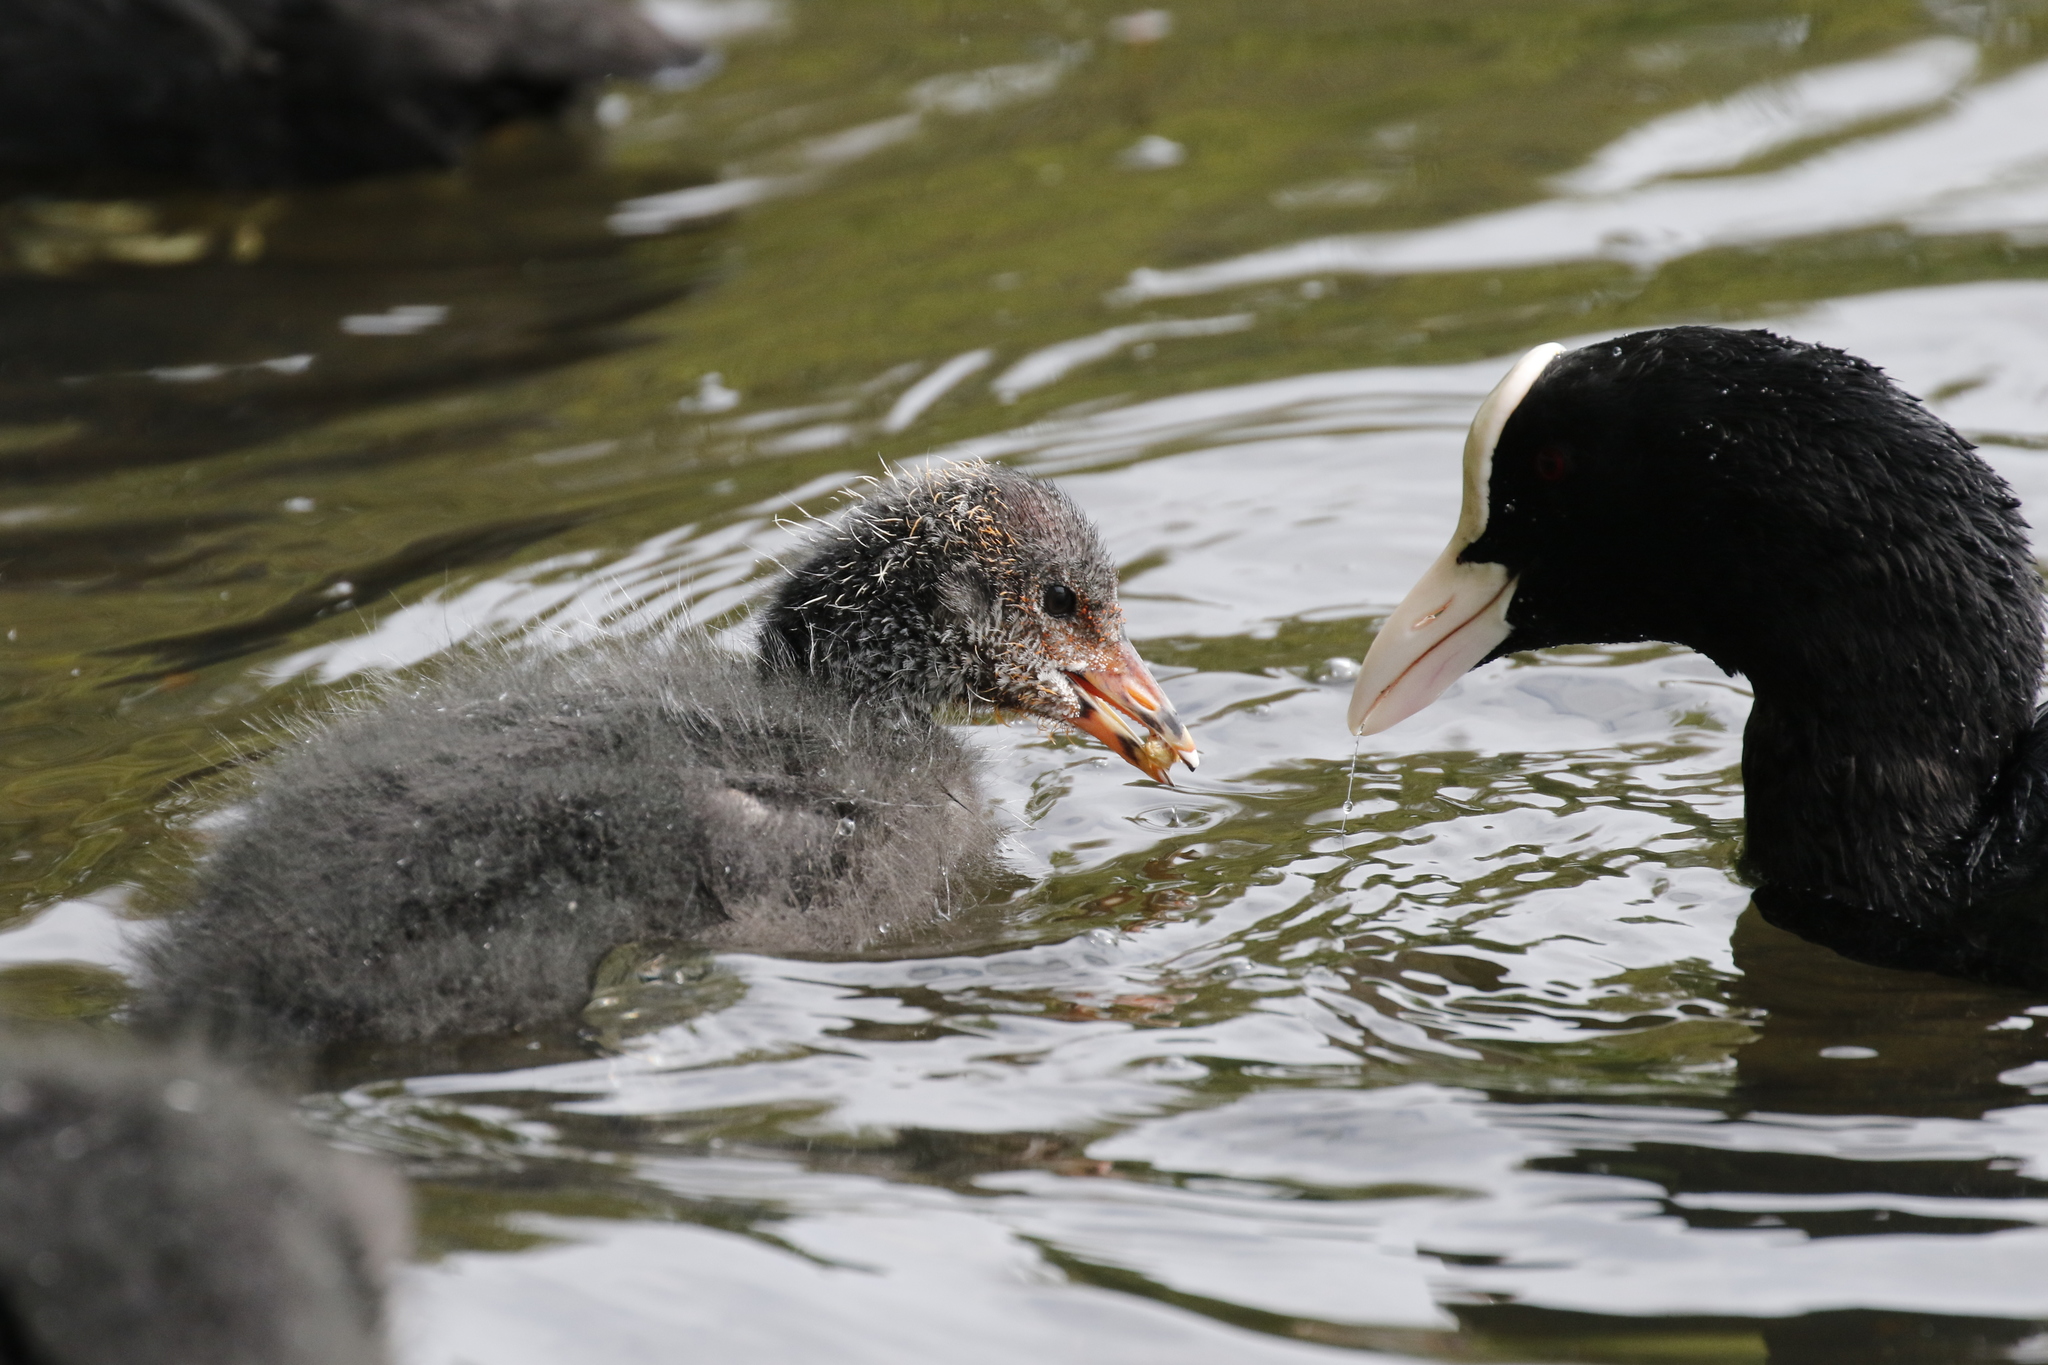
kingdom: Animalia
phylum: Chordata
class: Aves
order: Gruiformes
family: Rallidae
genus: Fulica
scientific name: Fulica atra
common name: Eurasian coot
